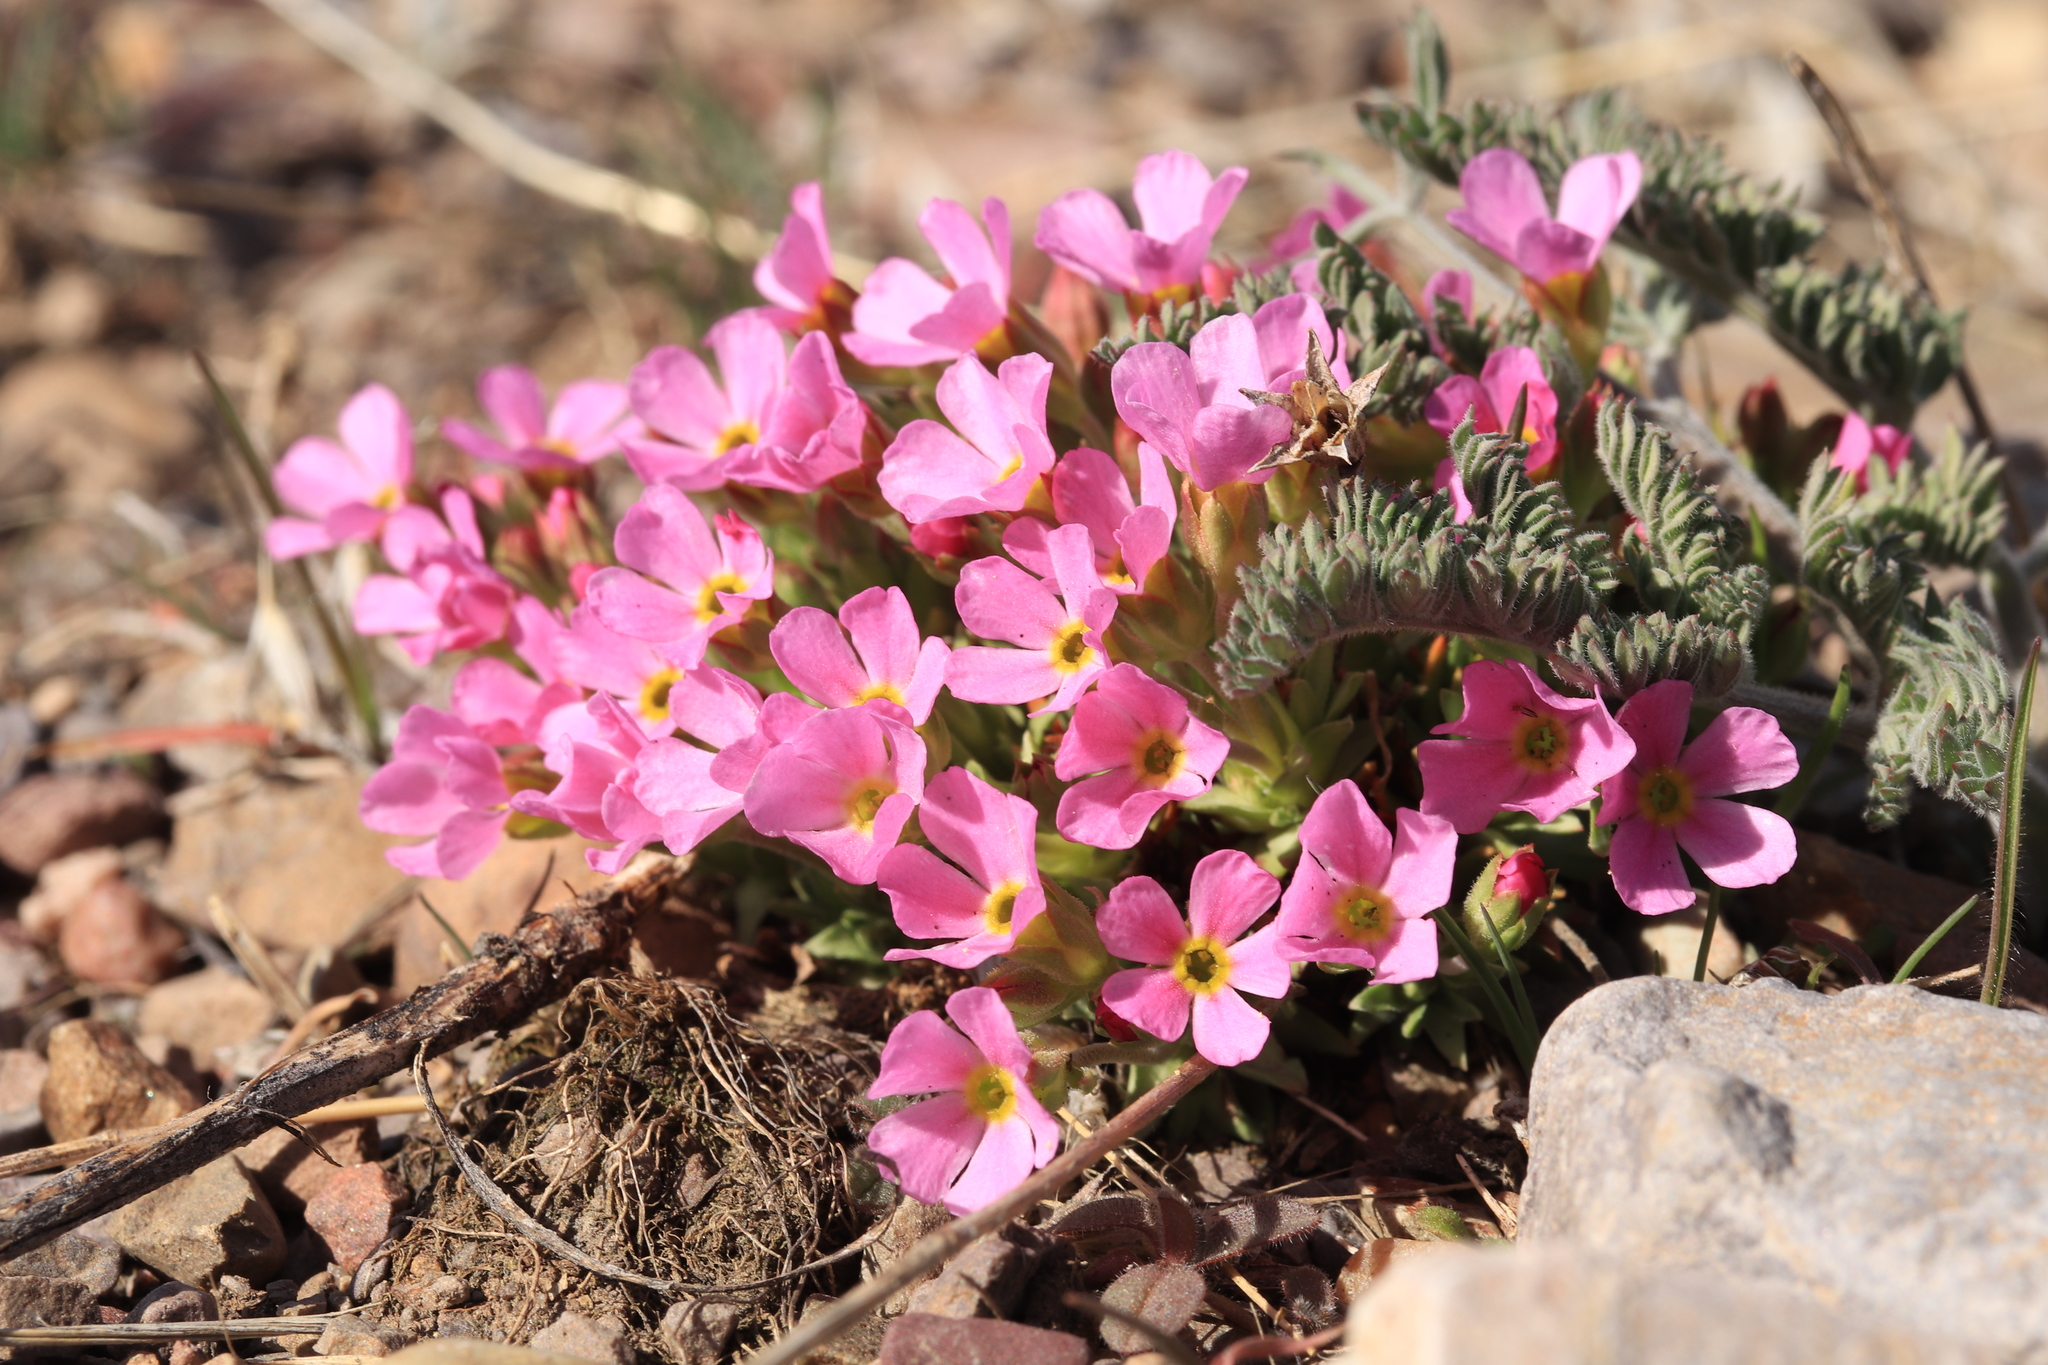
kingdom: Plantae
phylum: Tracheophyta
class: Magnoliopsida
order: Ericales
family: Primulaceae
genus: Androsace
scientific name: Androsace montana
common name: Rocky mountain dwarf-primrose
